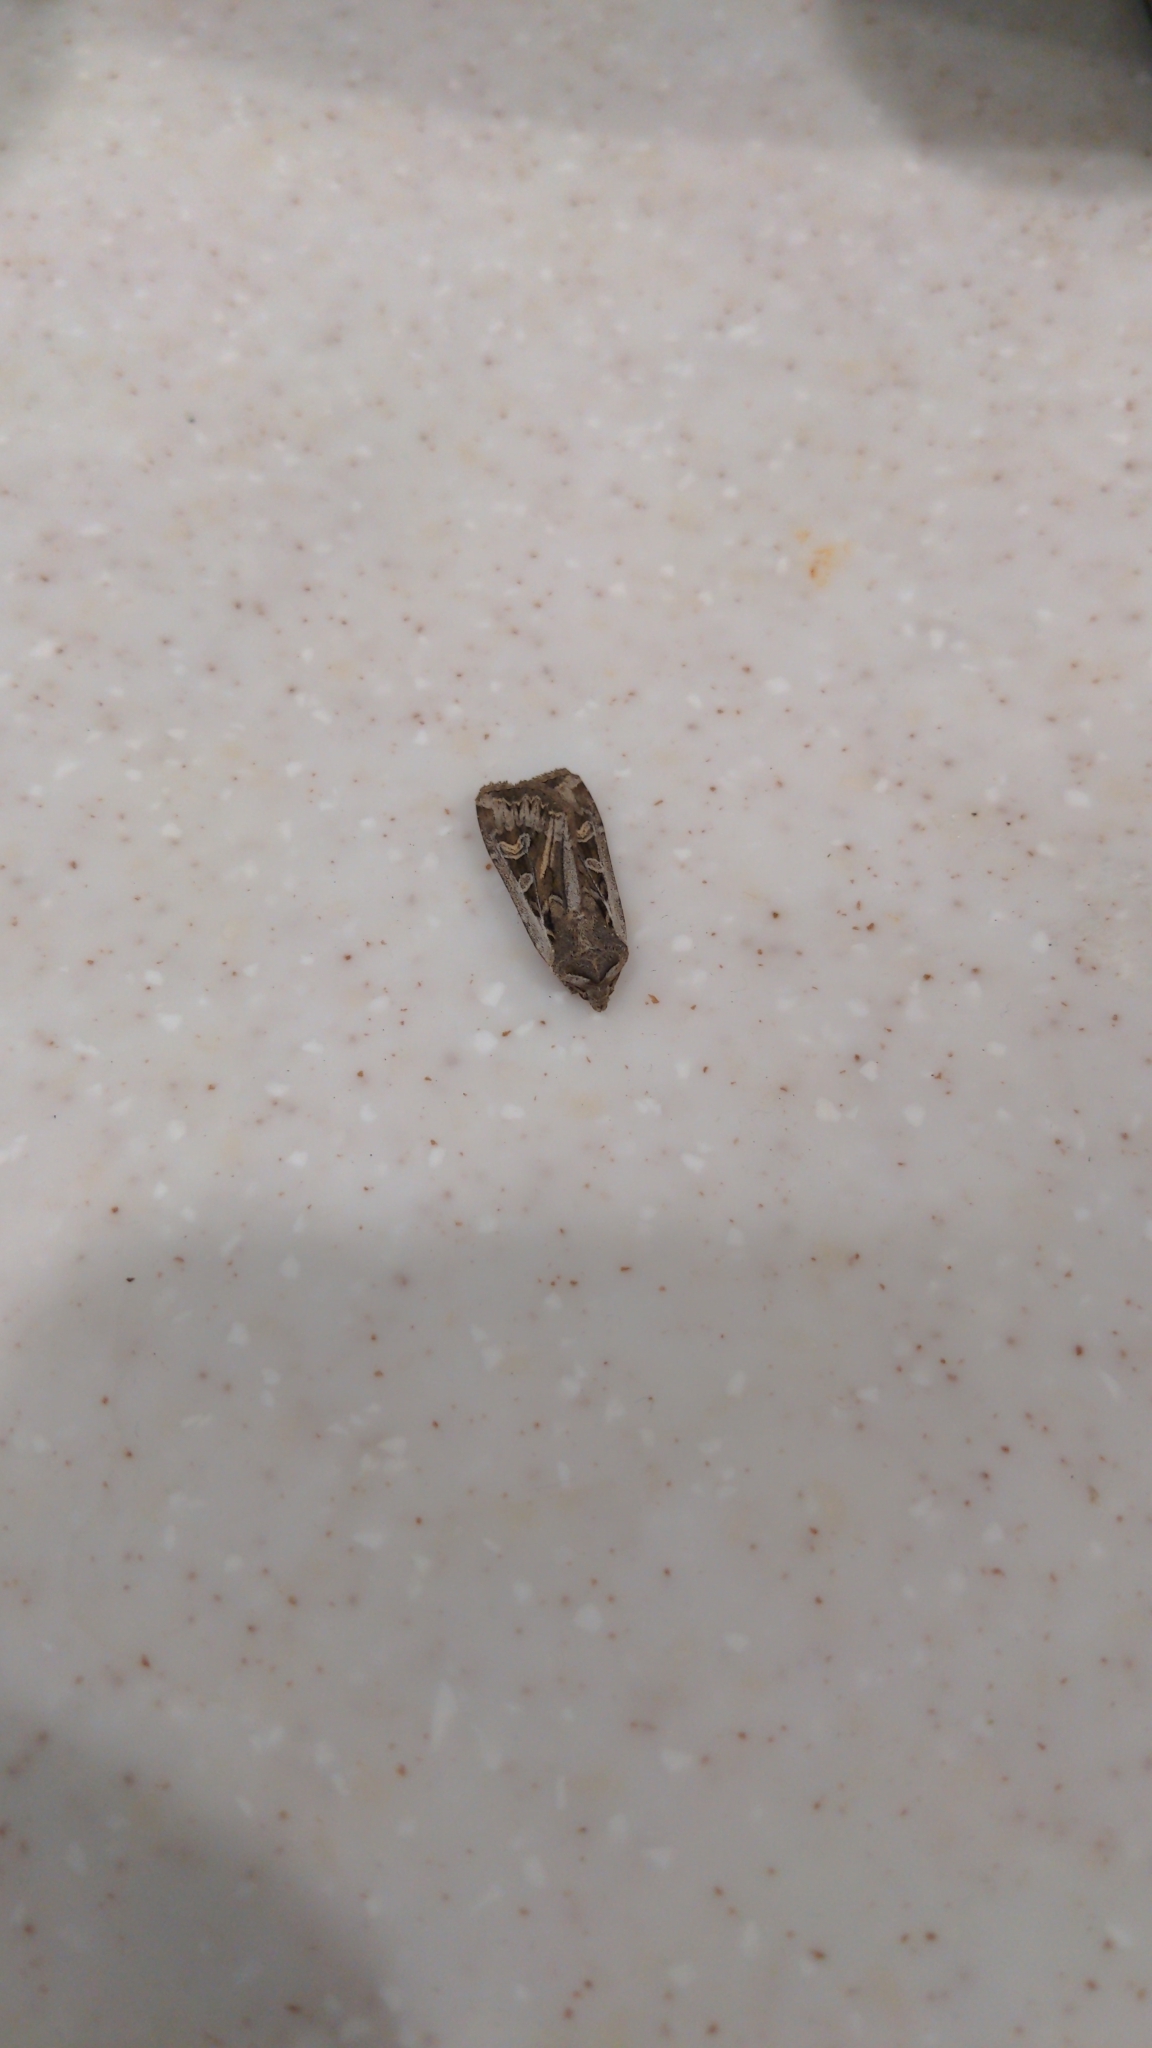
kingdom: Animalia
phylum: Arthropoda
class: Insecta
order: Lepidoptera
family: Noctuidae
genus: Euxoa
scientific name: Euxoa auxiliaris
